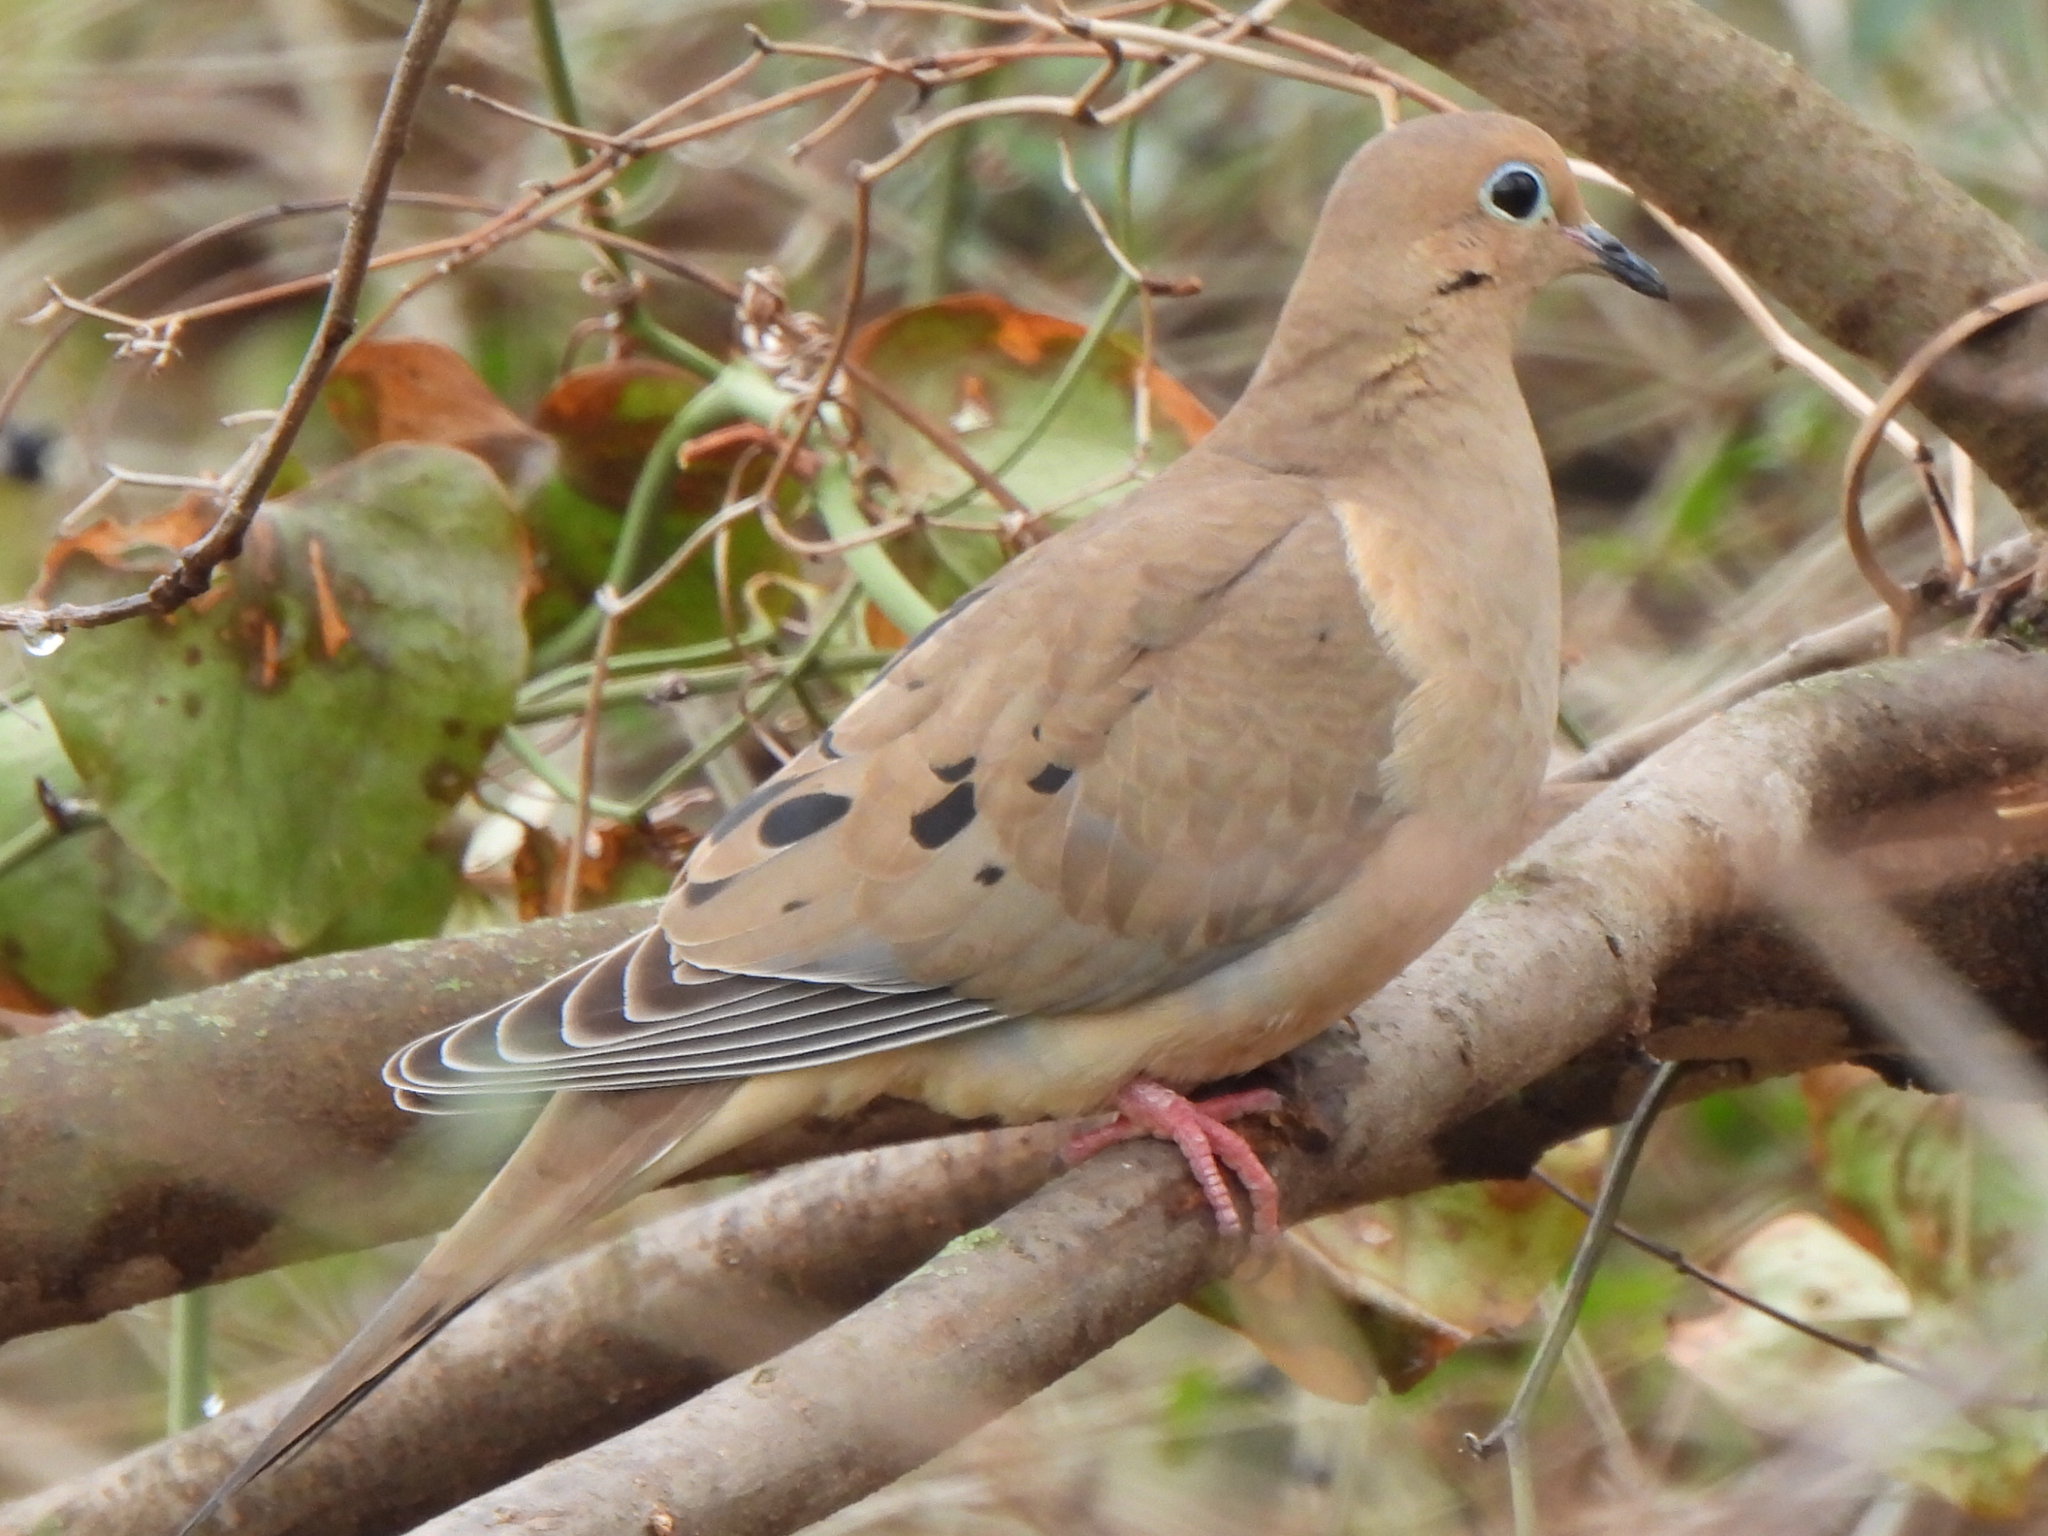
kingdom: Animalia
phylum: Chordata
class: Aves
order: Columbiformes
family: Columbidae
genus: Zenaida
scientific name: Zenaida macroura
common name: Mourning dove
